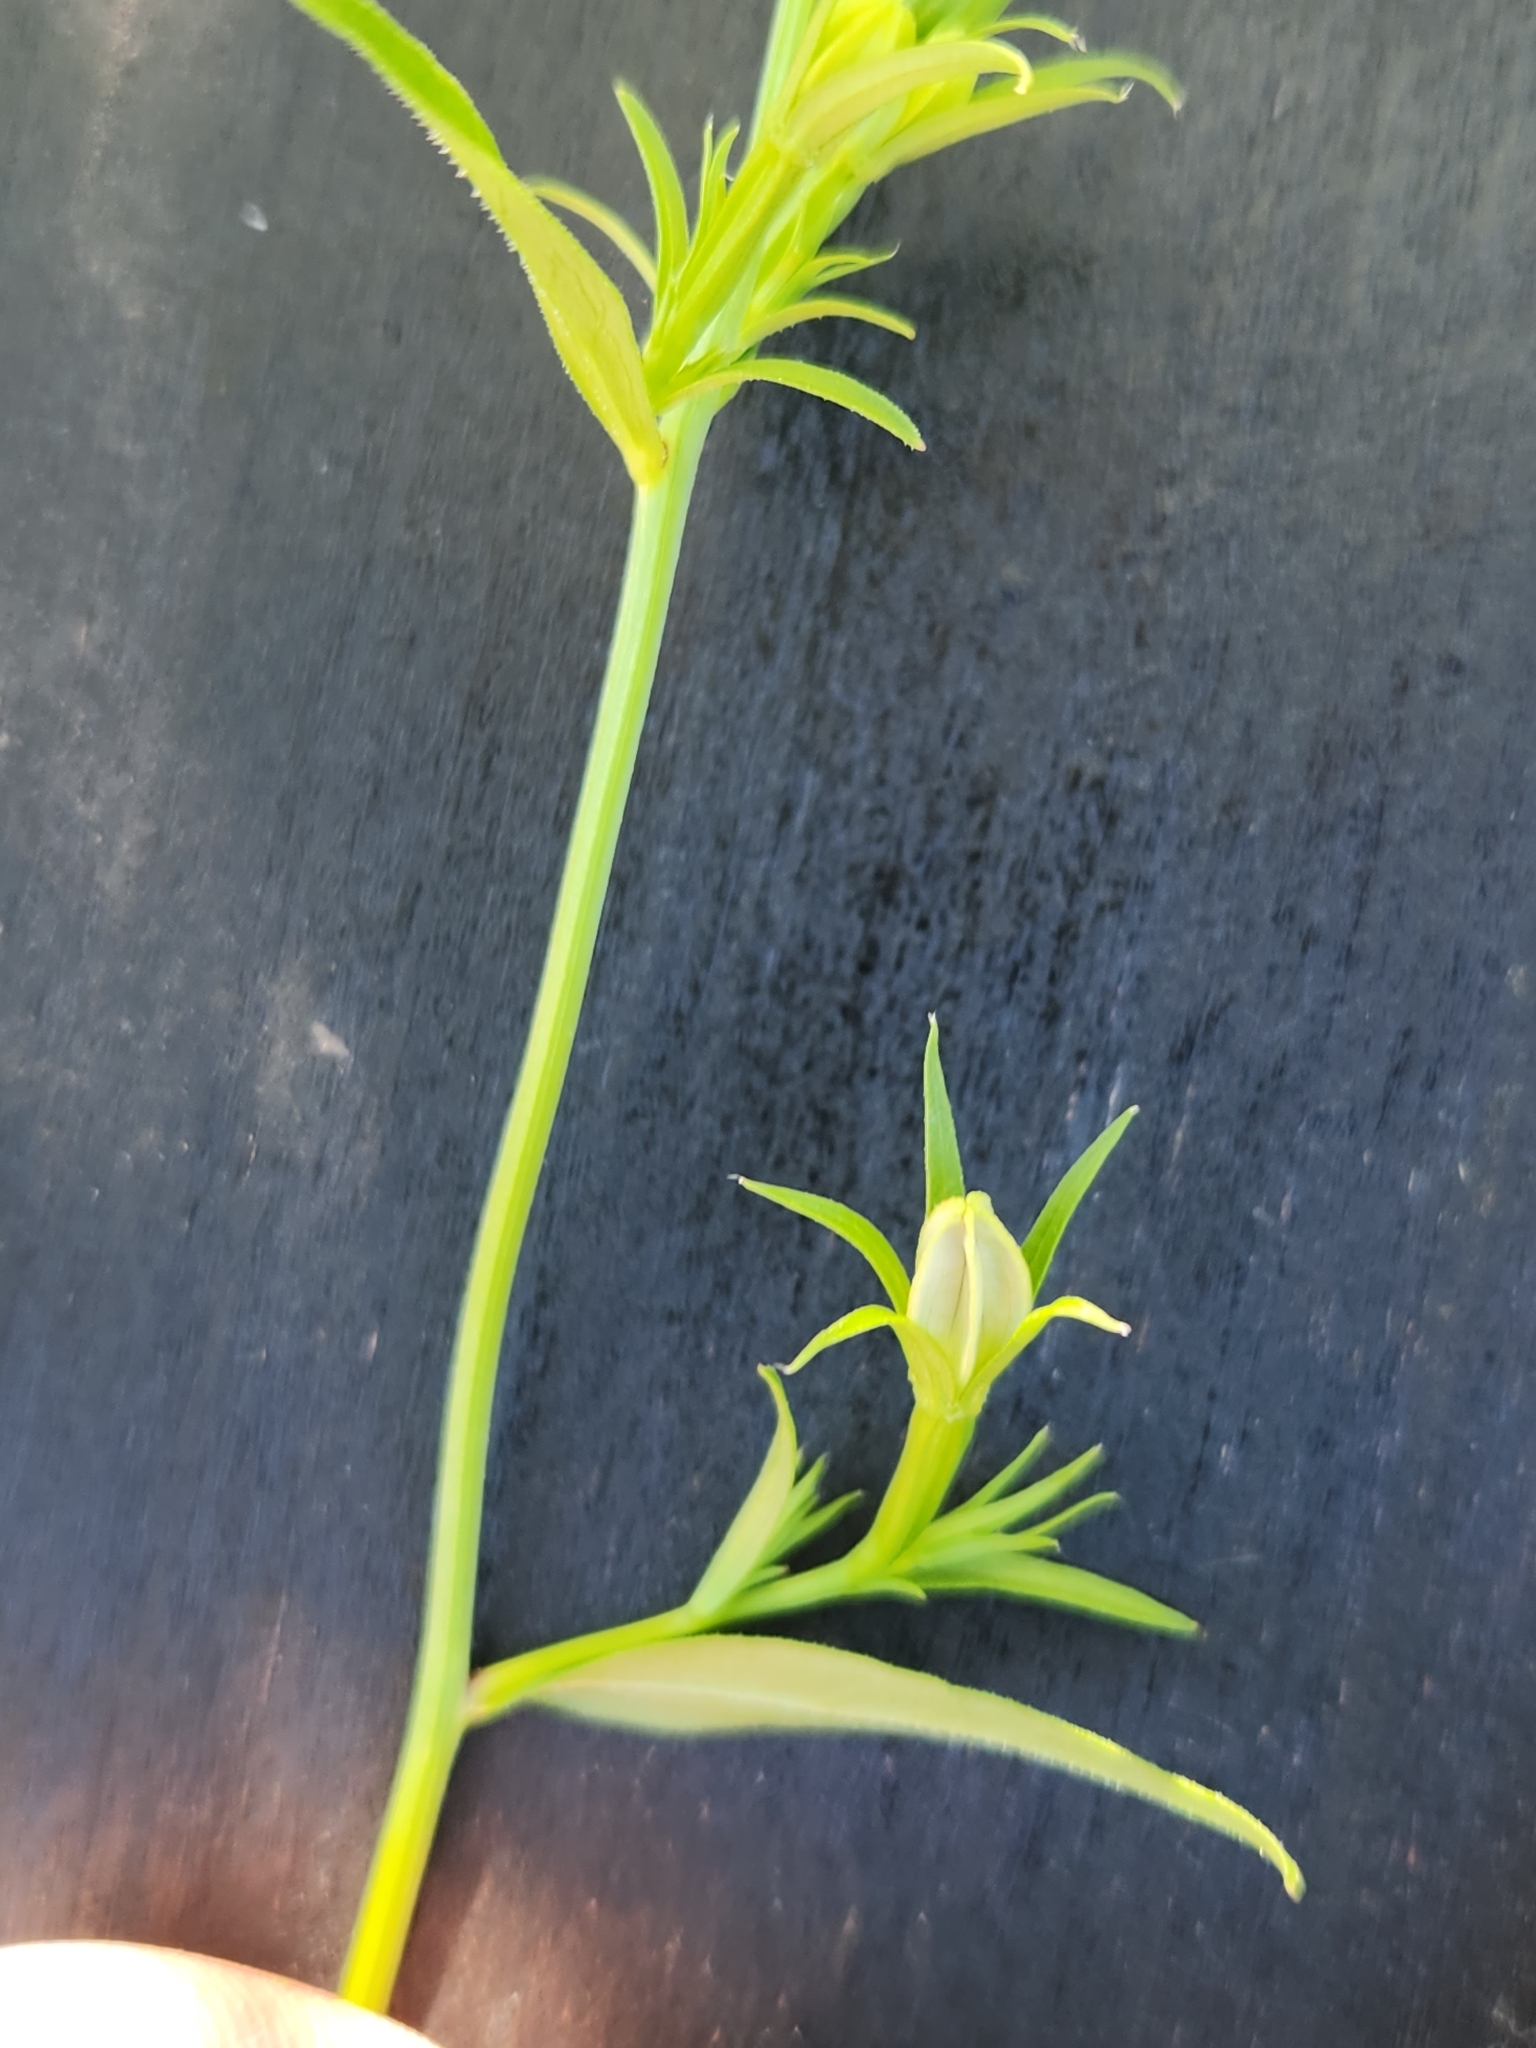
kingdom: Plantae
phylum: Tracheophyta
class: Magnoliopsida
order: Asterales
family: Campanulaceae
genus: Triodanis
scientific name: Triodanis coloradoensis
